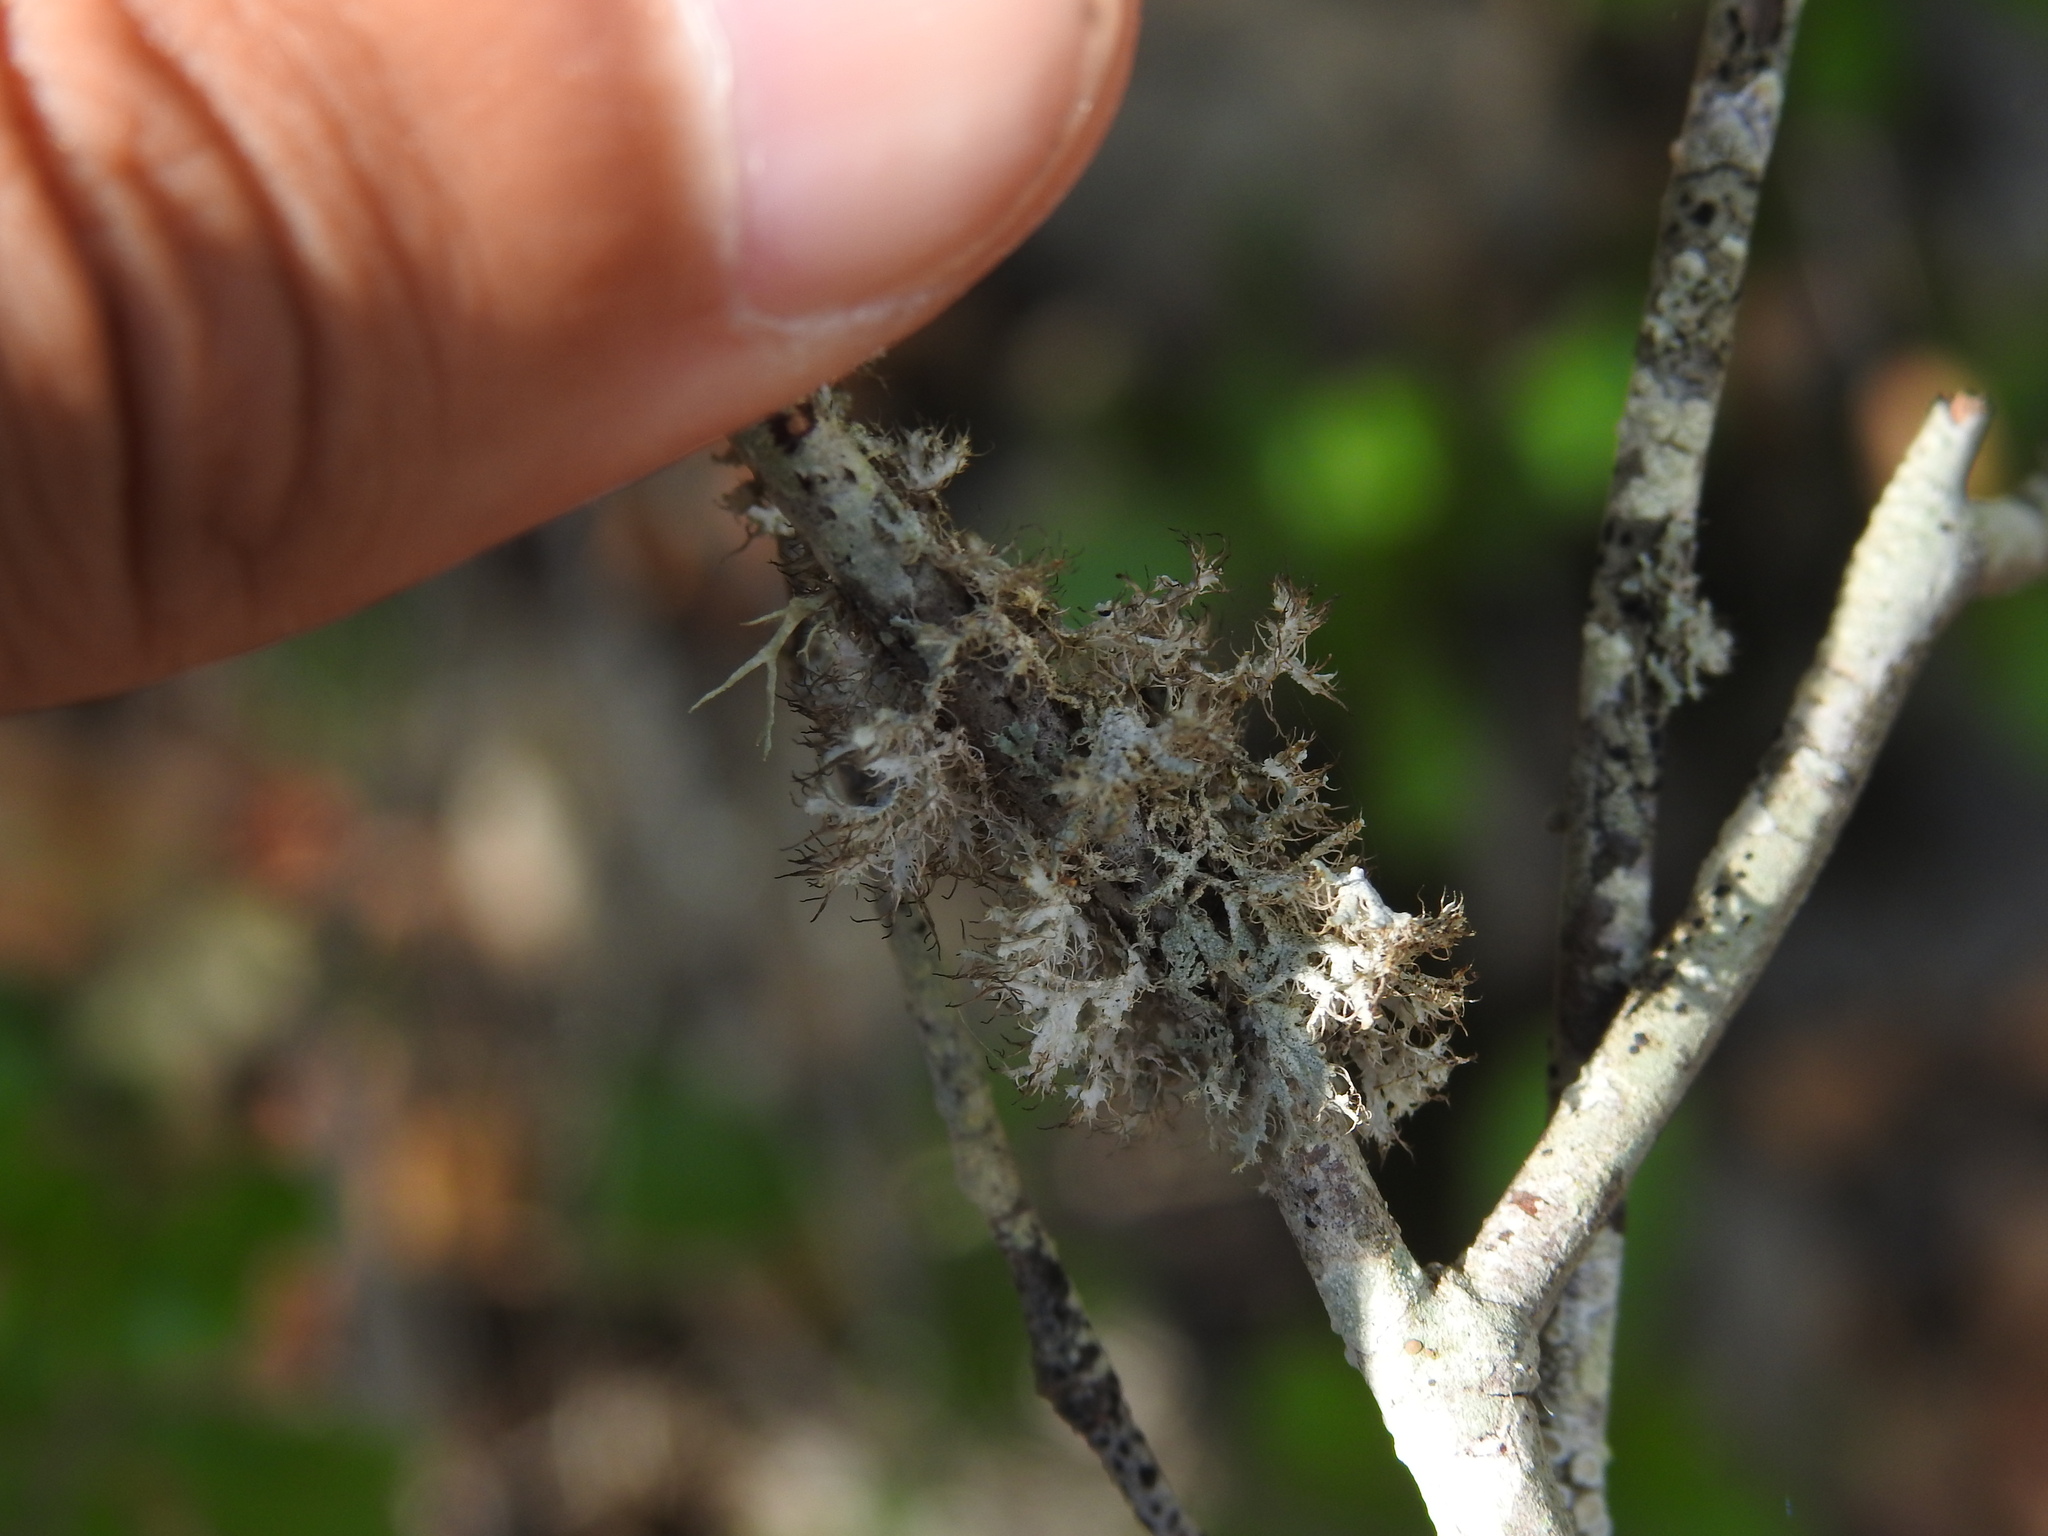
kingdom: Fungi
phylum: Ascomycota
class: Lecanoromycetes
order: Caliciales
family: Physciaceae
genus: Physcia
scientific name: Physcia leptalea
